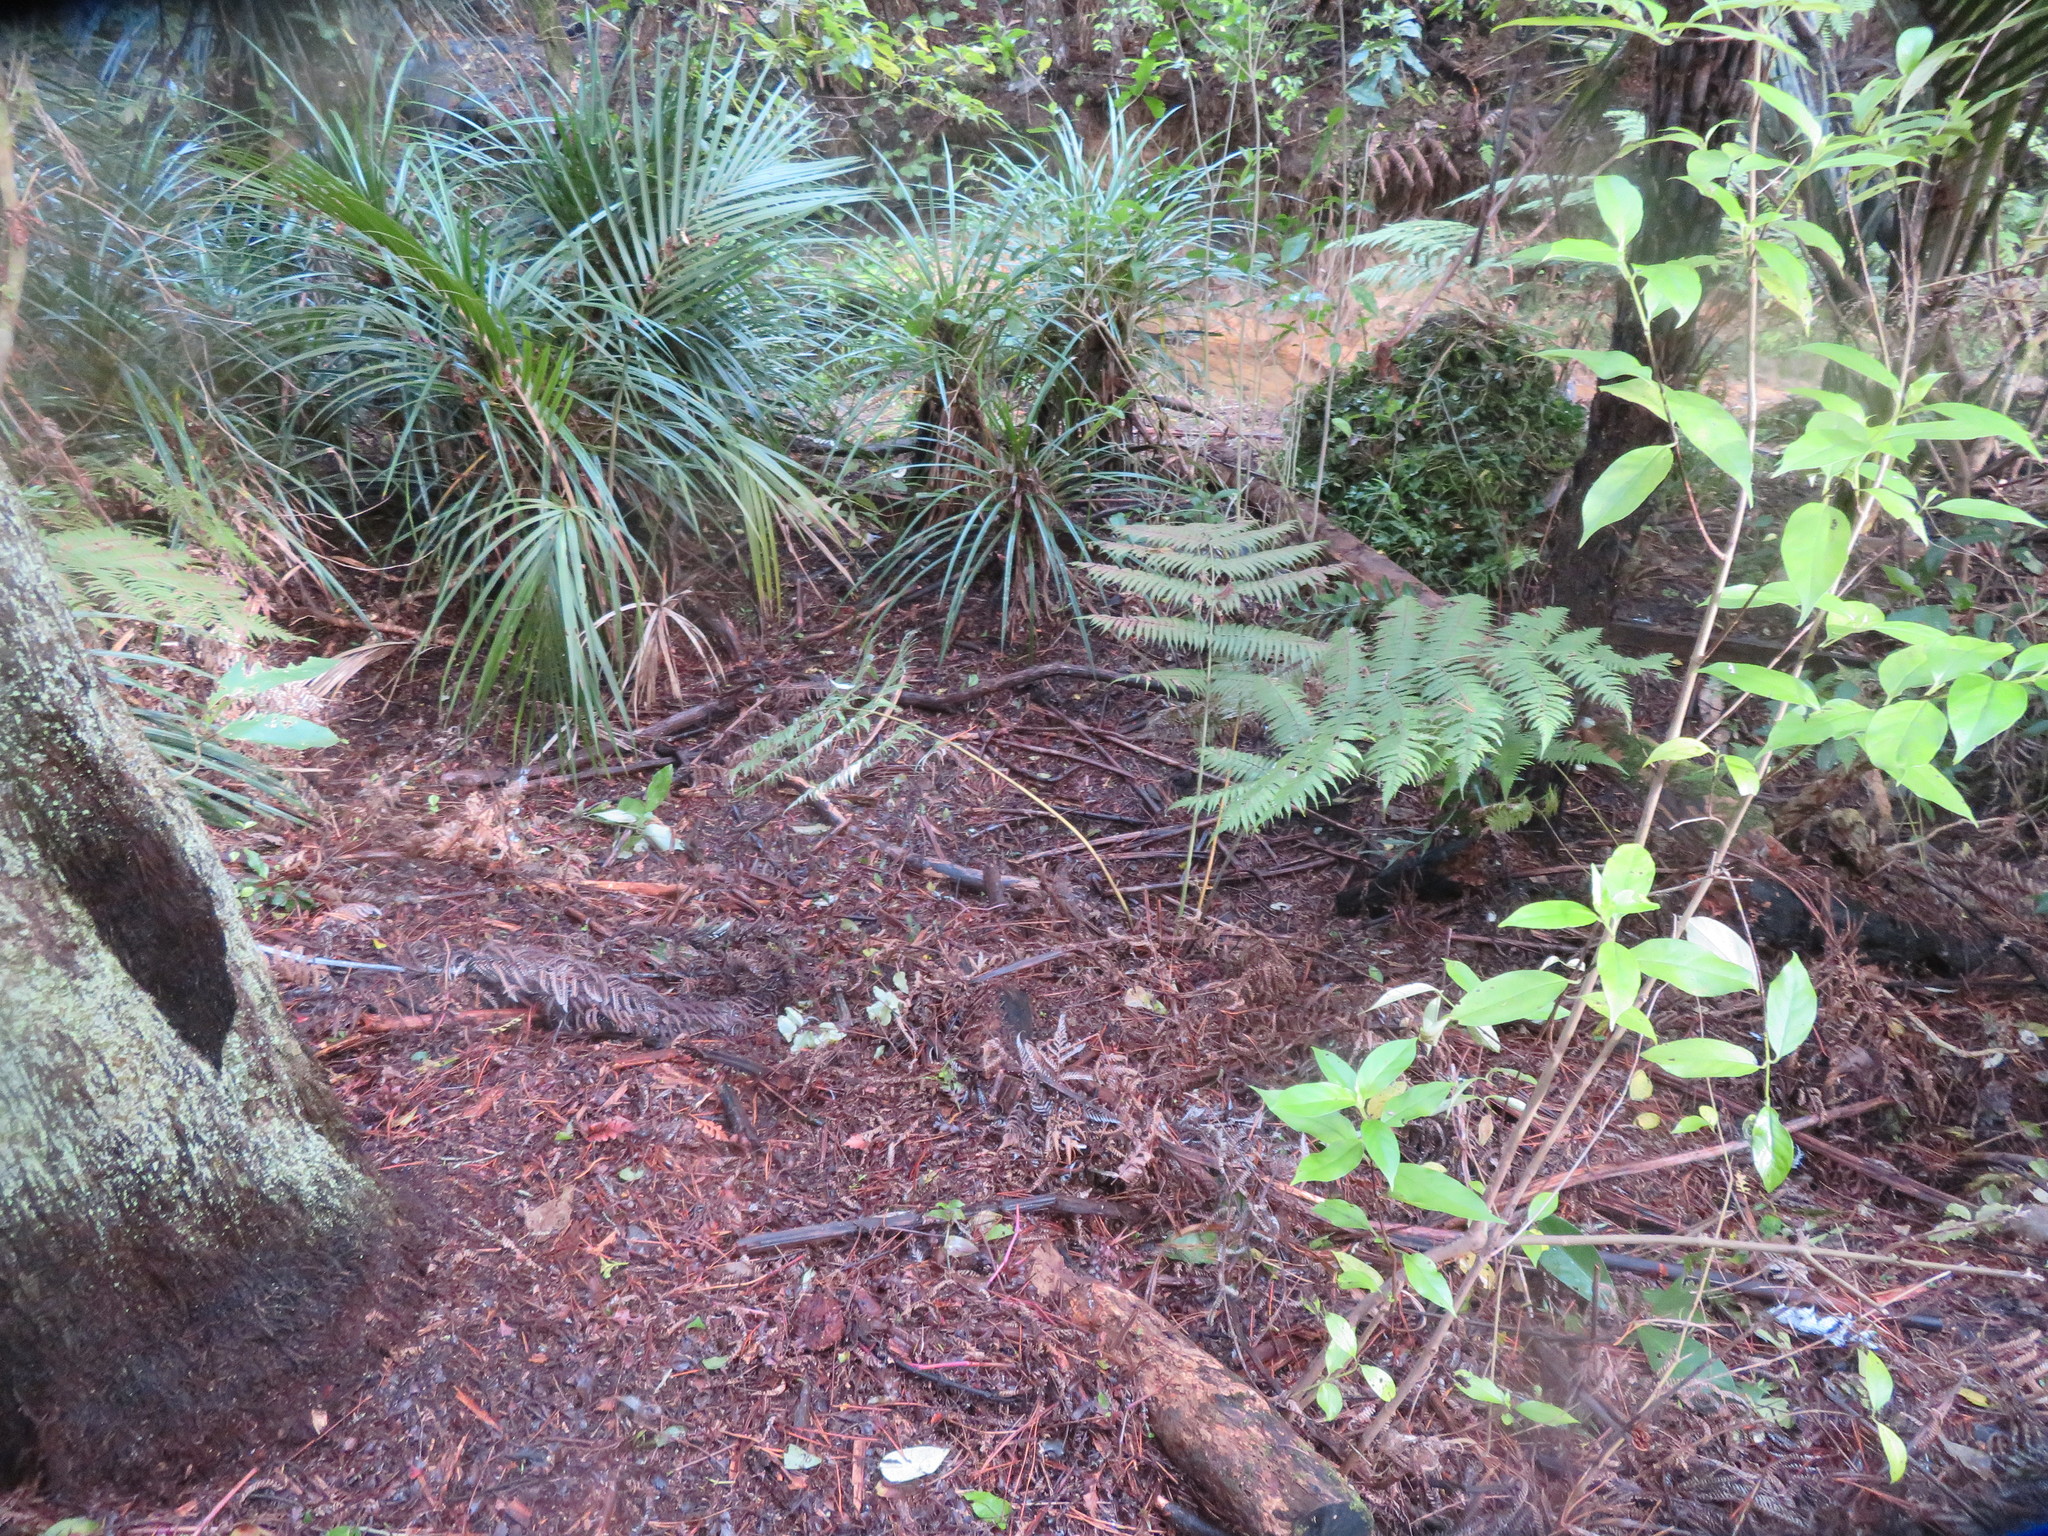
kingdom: Plantae
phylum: Tracheophyta
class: Magnoliopsida
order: Gentianales
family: Loganiaceae
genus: Geniostoma
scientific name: Geniostoma ligustrifolium
